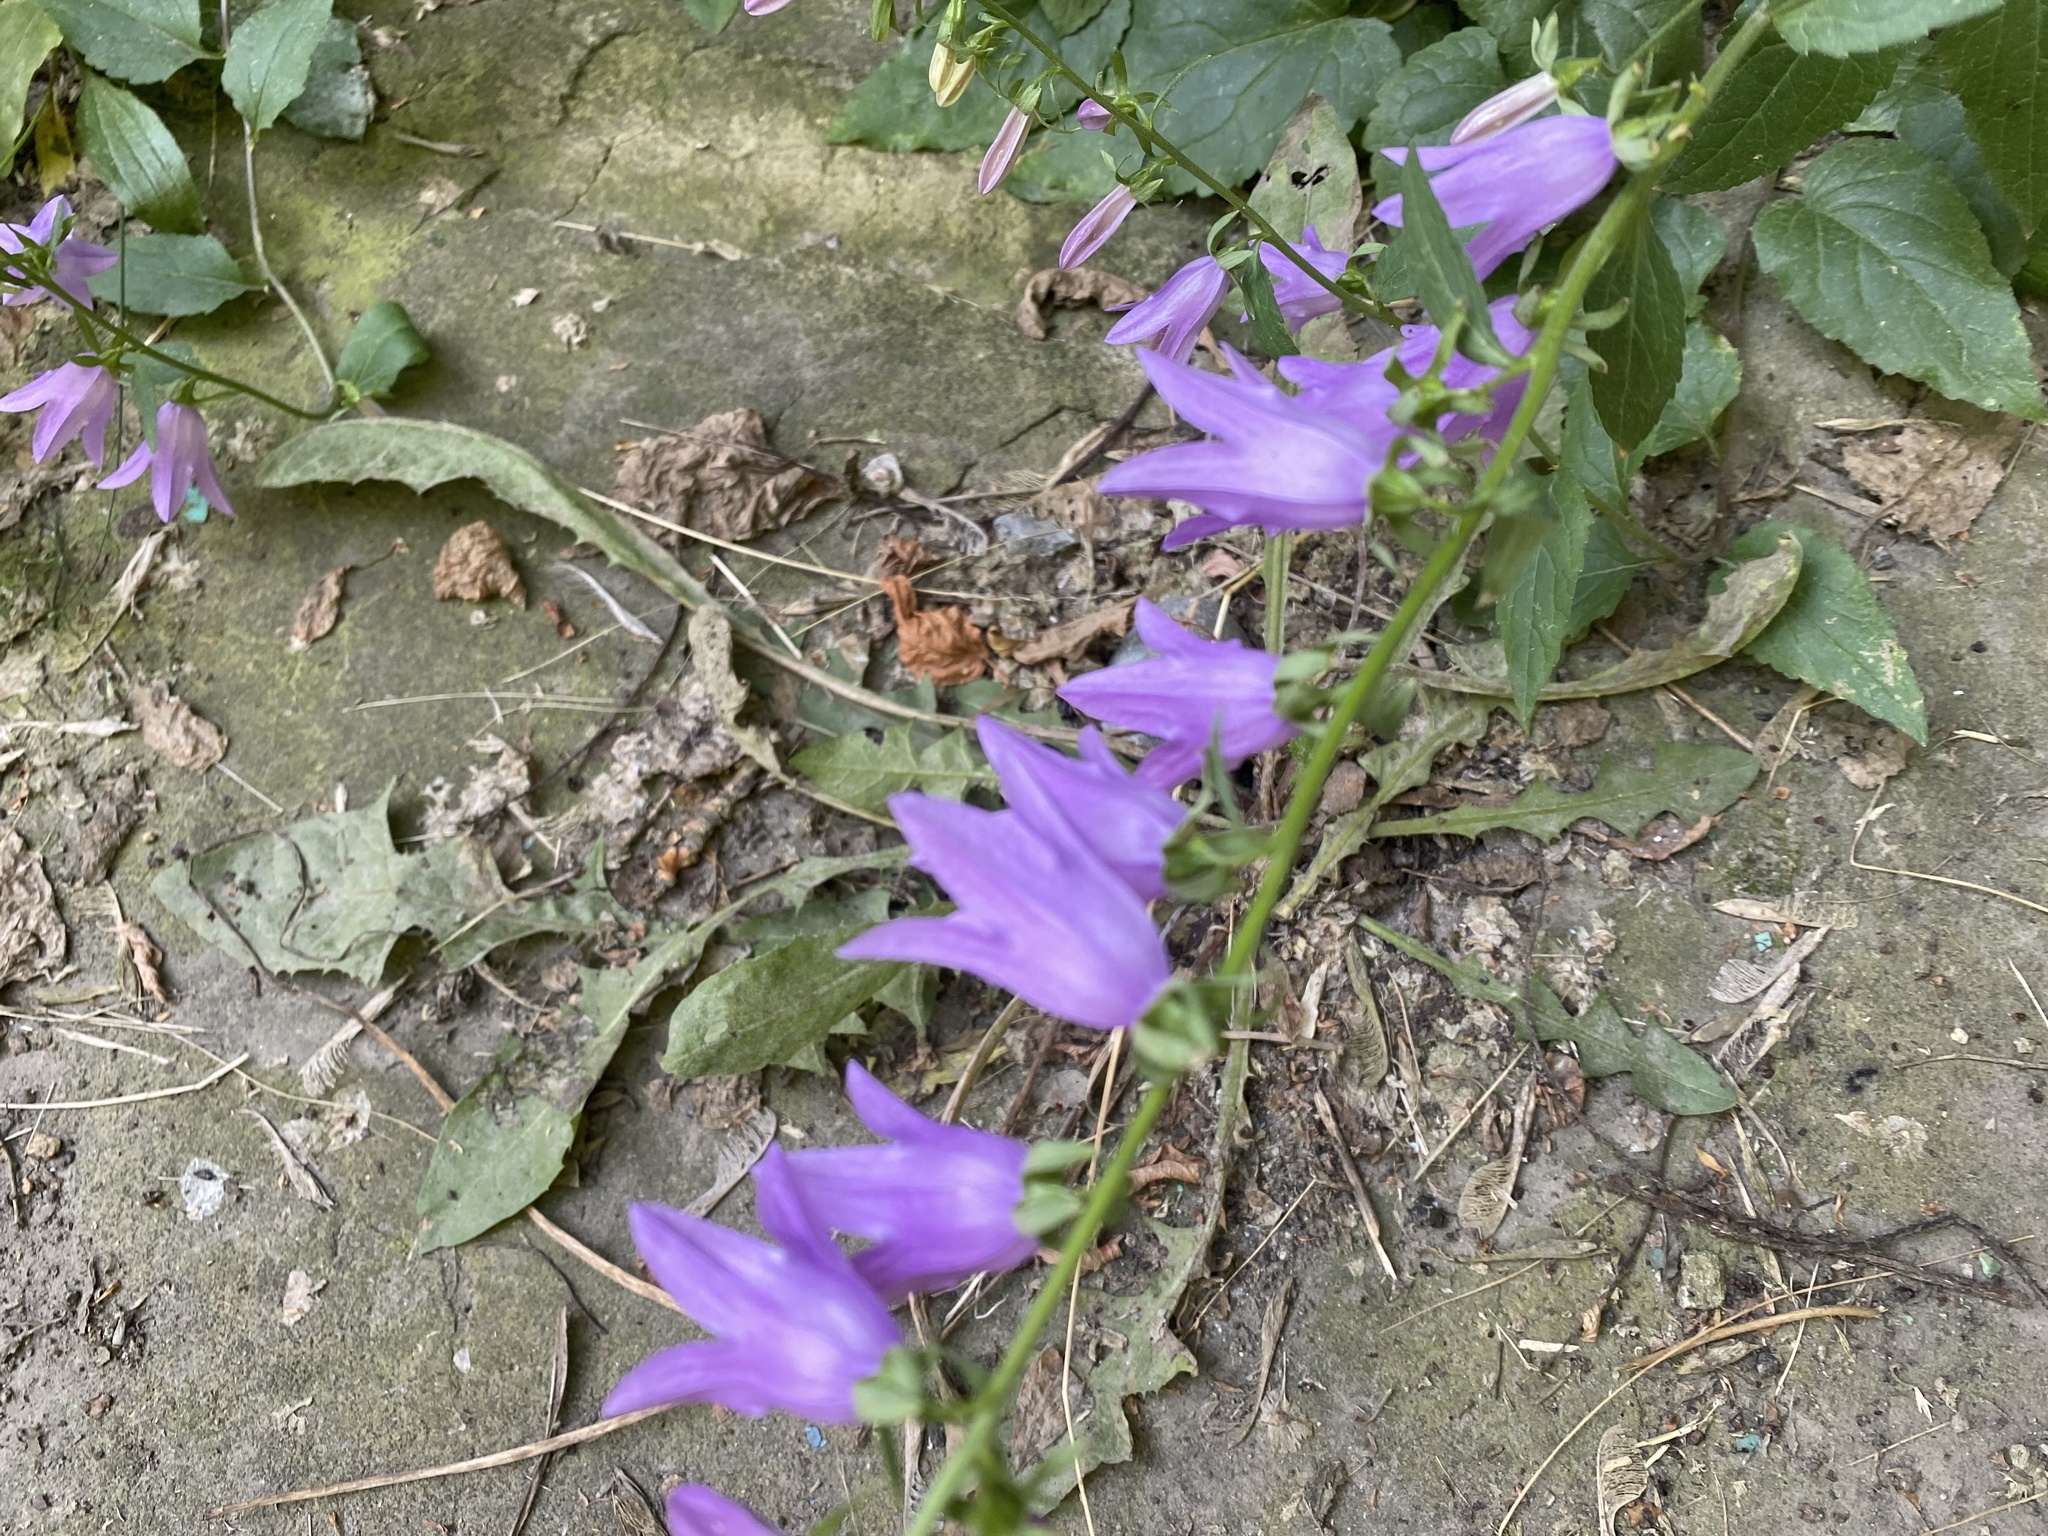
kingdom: Plantae
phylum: Tracheophyta
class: Magnoliopsida
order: Asterales
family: Campanulaceae
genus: Campanula
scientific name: Campanula rapunculoides
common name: Creeping bellflower
